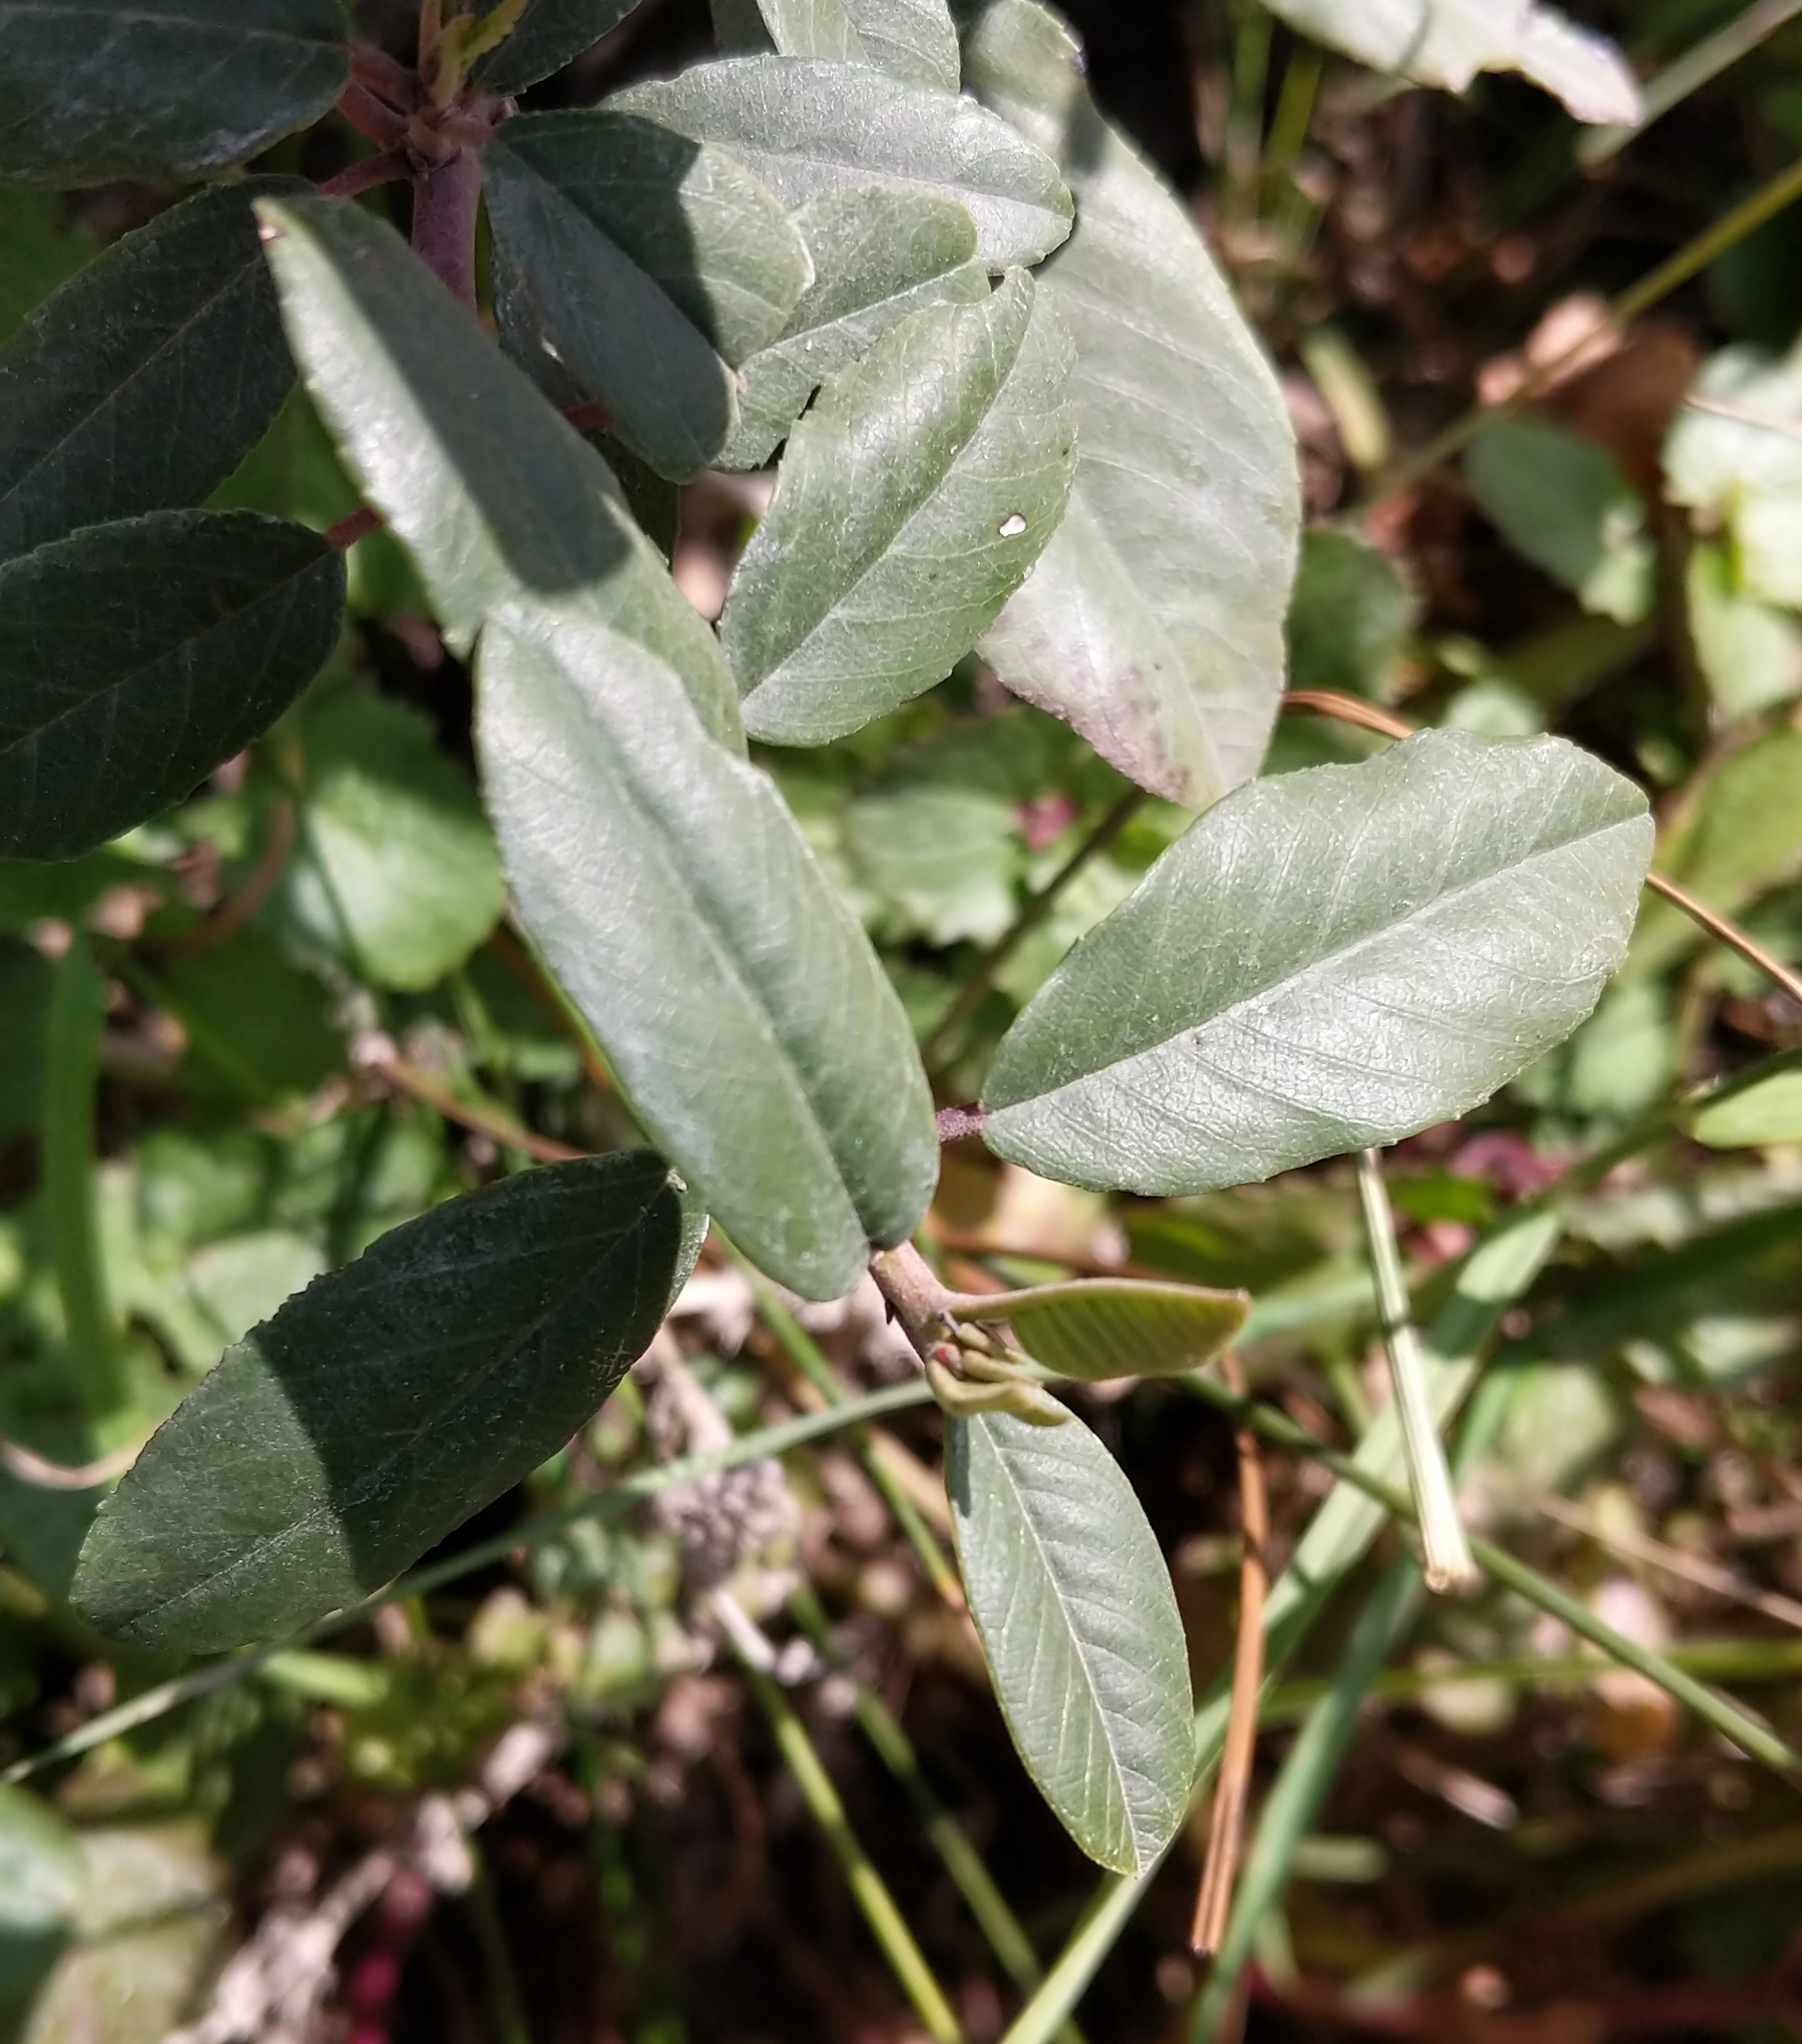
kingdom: Plantae
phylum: Tracheophyta
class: Magnoliopsida
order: Rosales
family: Rhamnaceae
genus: Frangula
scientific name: Frangula californica
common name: California buckthorn
